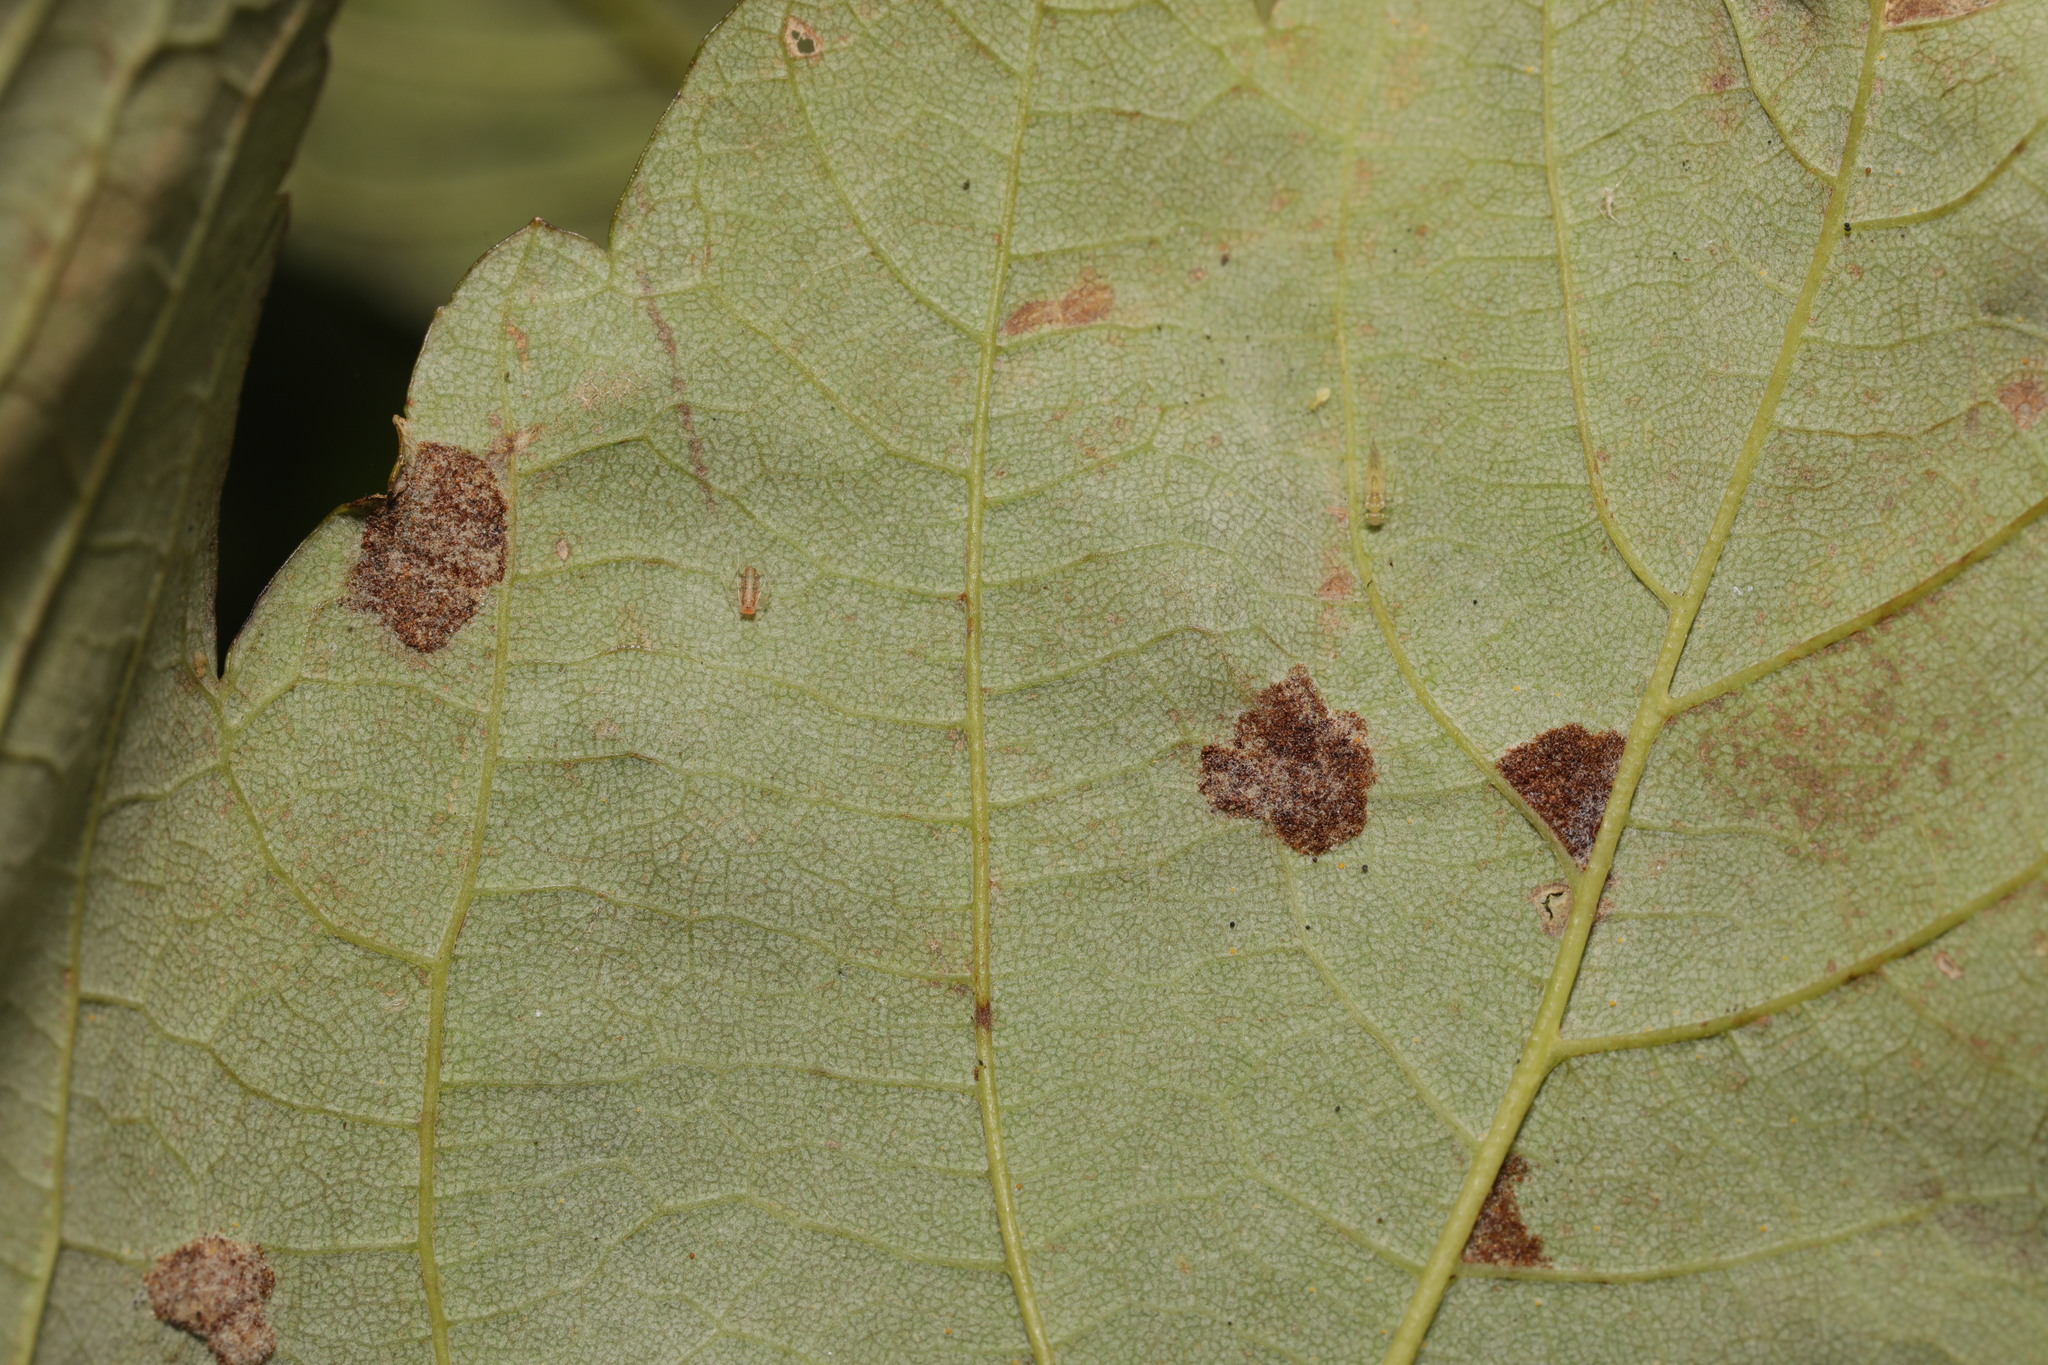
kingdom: Animalia
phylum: Arthropoda
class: Arachnida
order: Trombidiformes
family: Eriophyidae
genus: Aceria
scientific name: Aceria pseudoplatani
